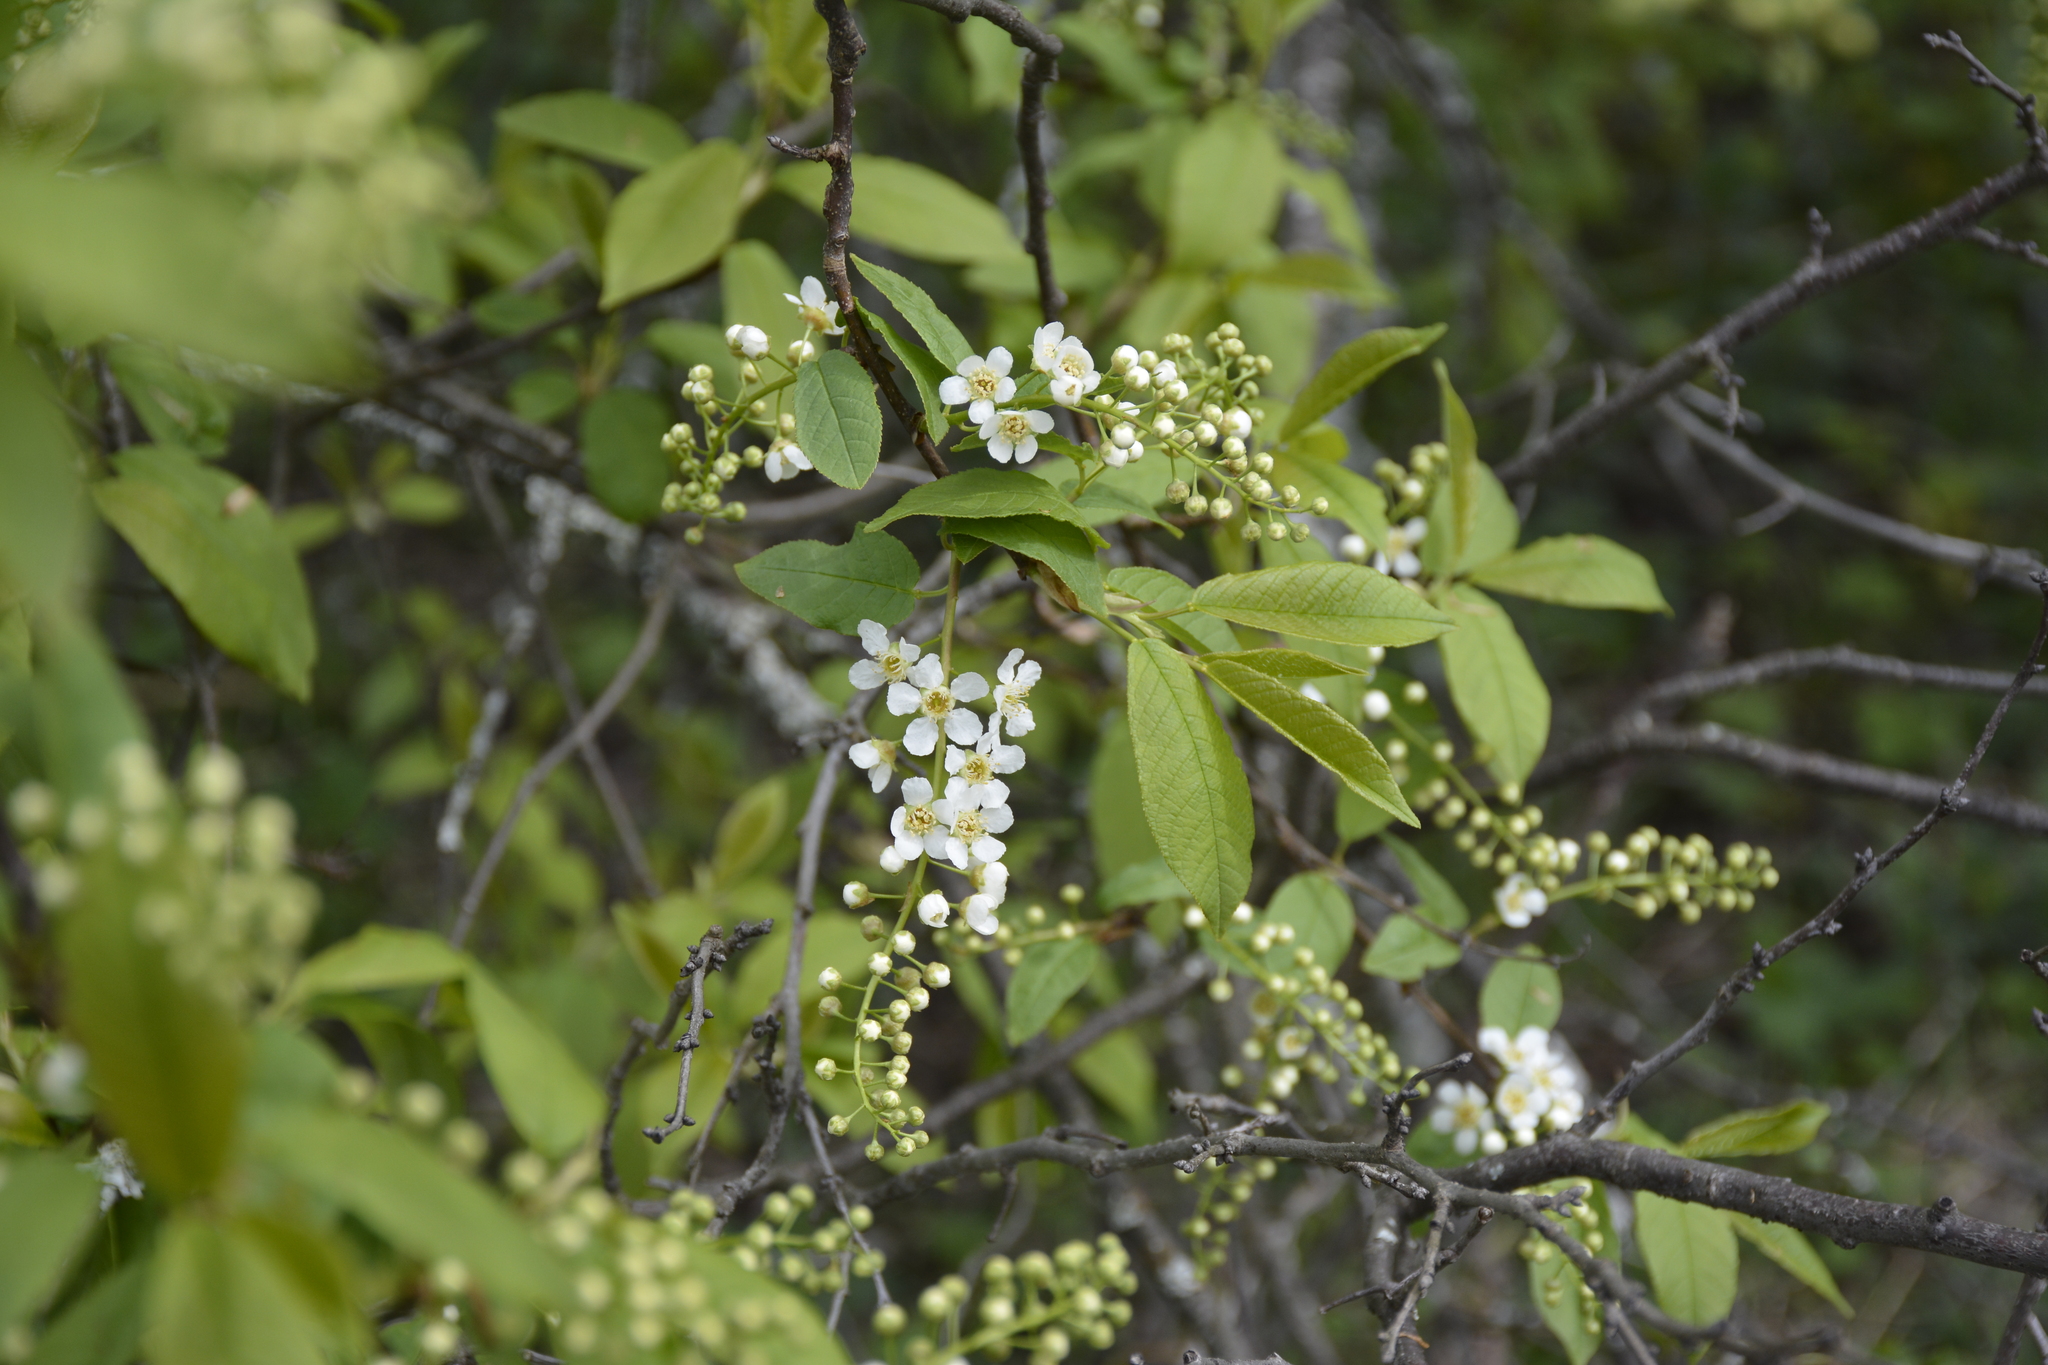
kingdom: Plantae
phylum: Tracheophyta
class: Magnoliopsida
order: Rosales
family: Rosaceae
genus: Prunus
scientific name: Prunus padus
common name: Bird cherry
